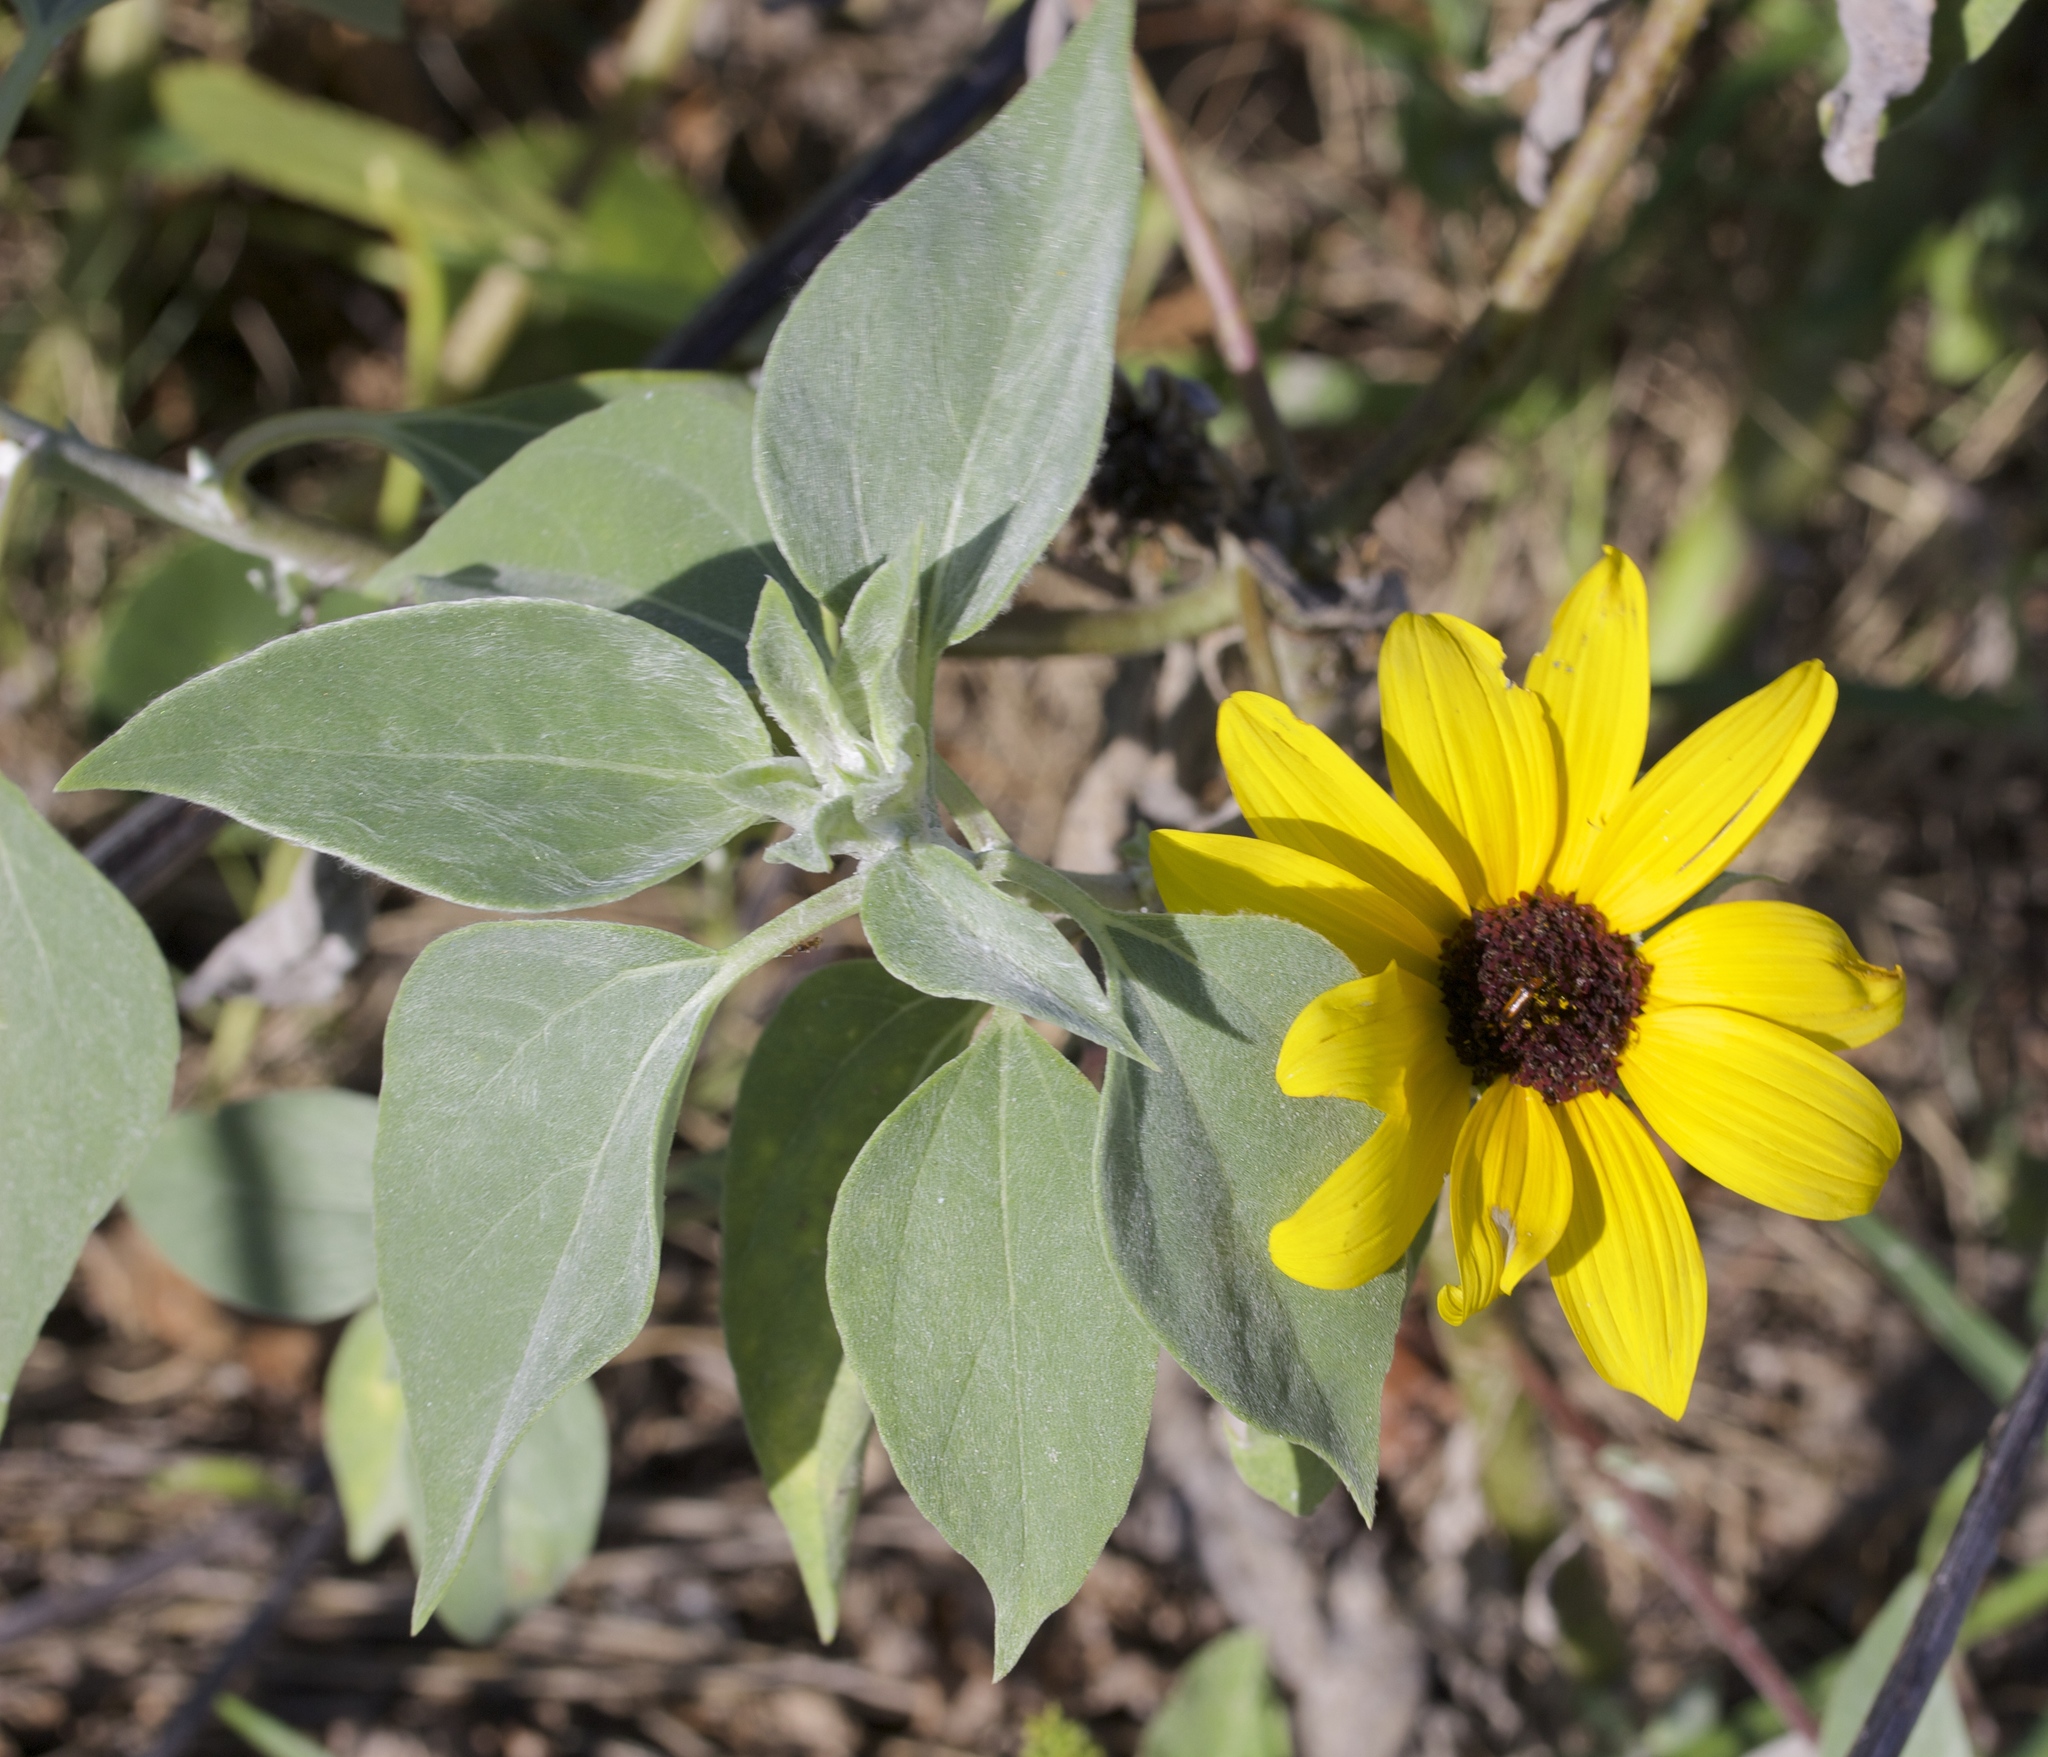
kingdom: Plantae
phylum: Tracheophyta
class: Magnoliopsida
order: Asterales
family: Asteraceae
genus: Helianthus
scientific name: Helianthus argophyllus
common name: Silverleaf sunflower
